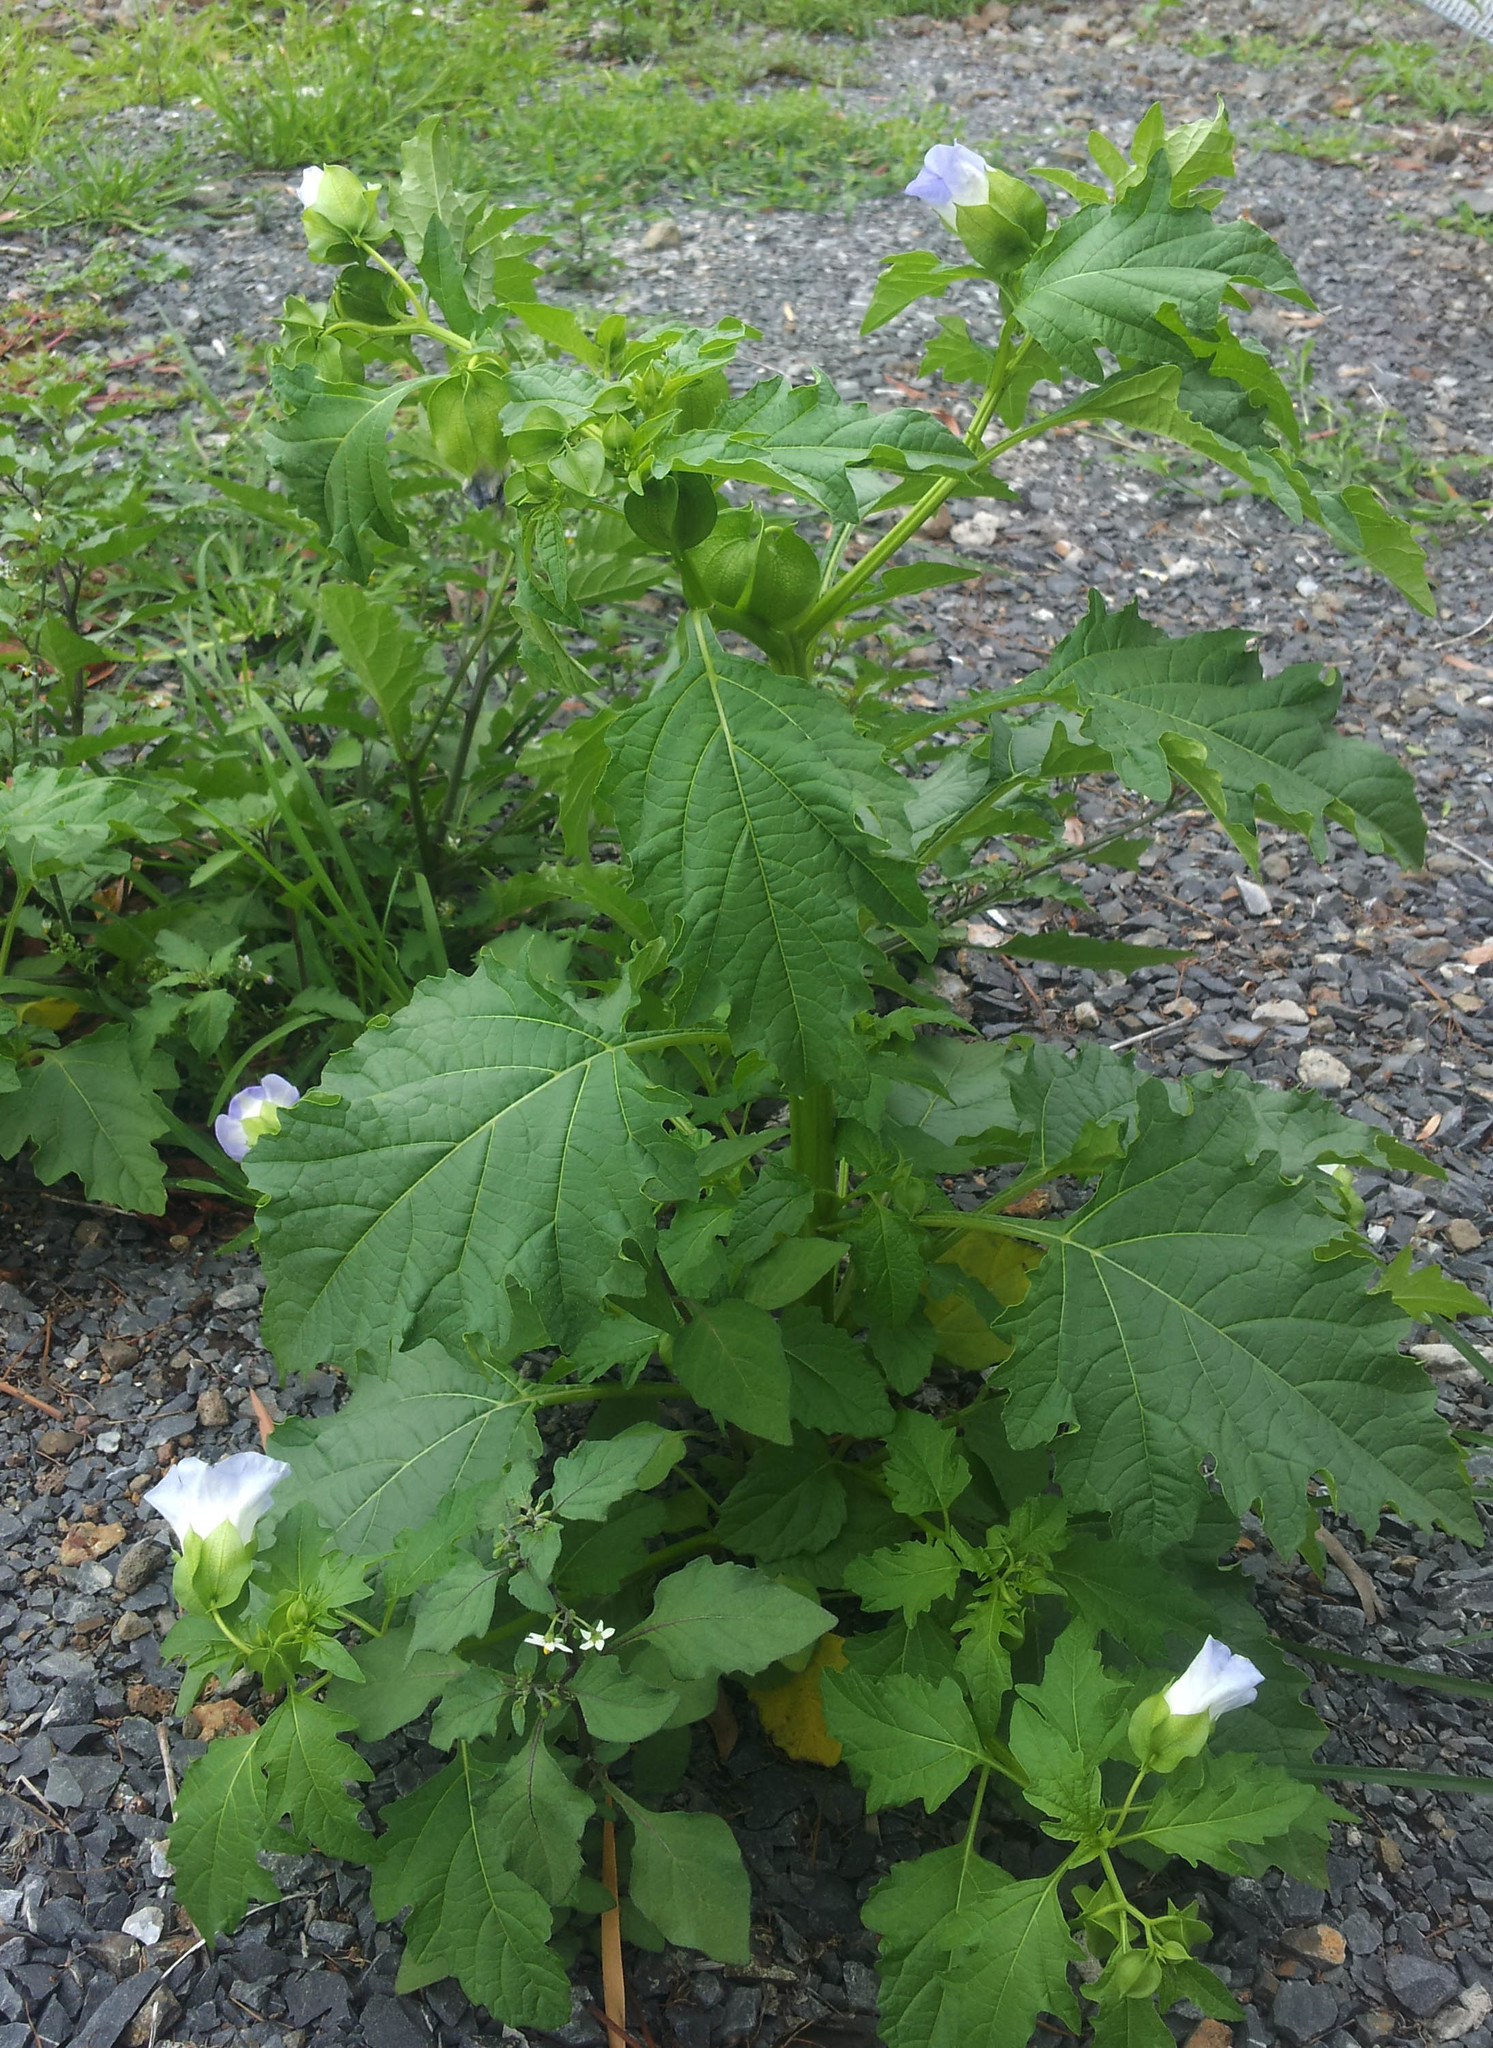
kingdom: Plantae
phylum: Tracheophyta
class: Magnoliopsida
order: Solanales
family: Solanaceae
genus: Nicandra
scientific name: Nicandra physalodes
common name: Apple-of-peru
